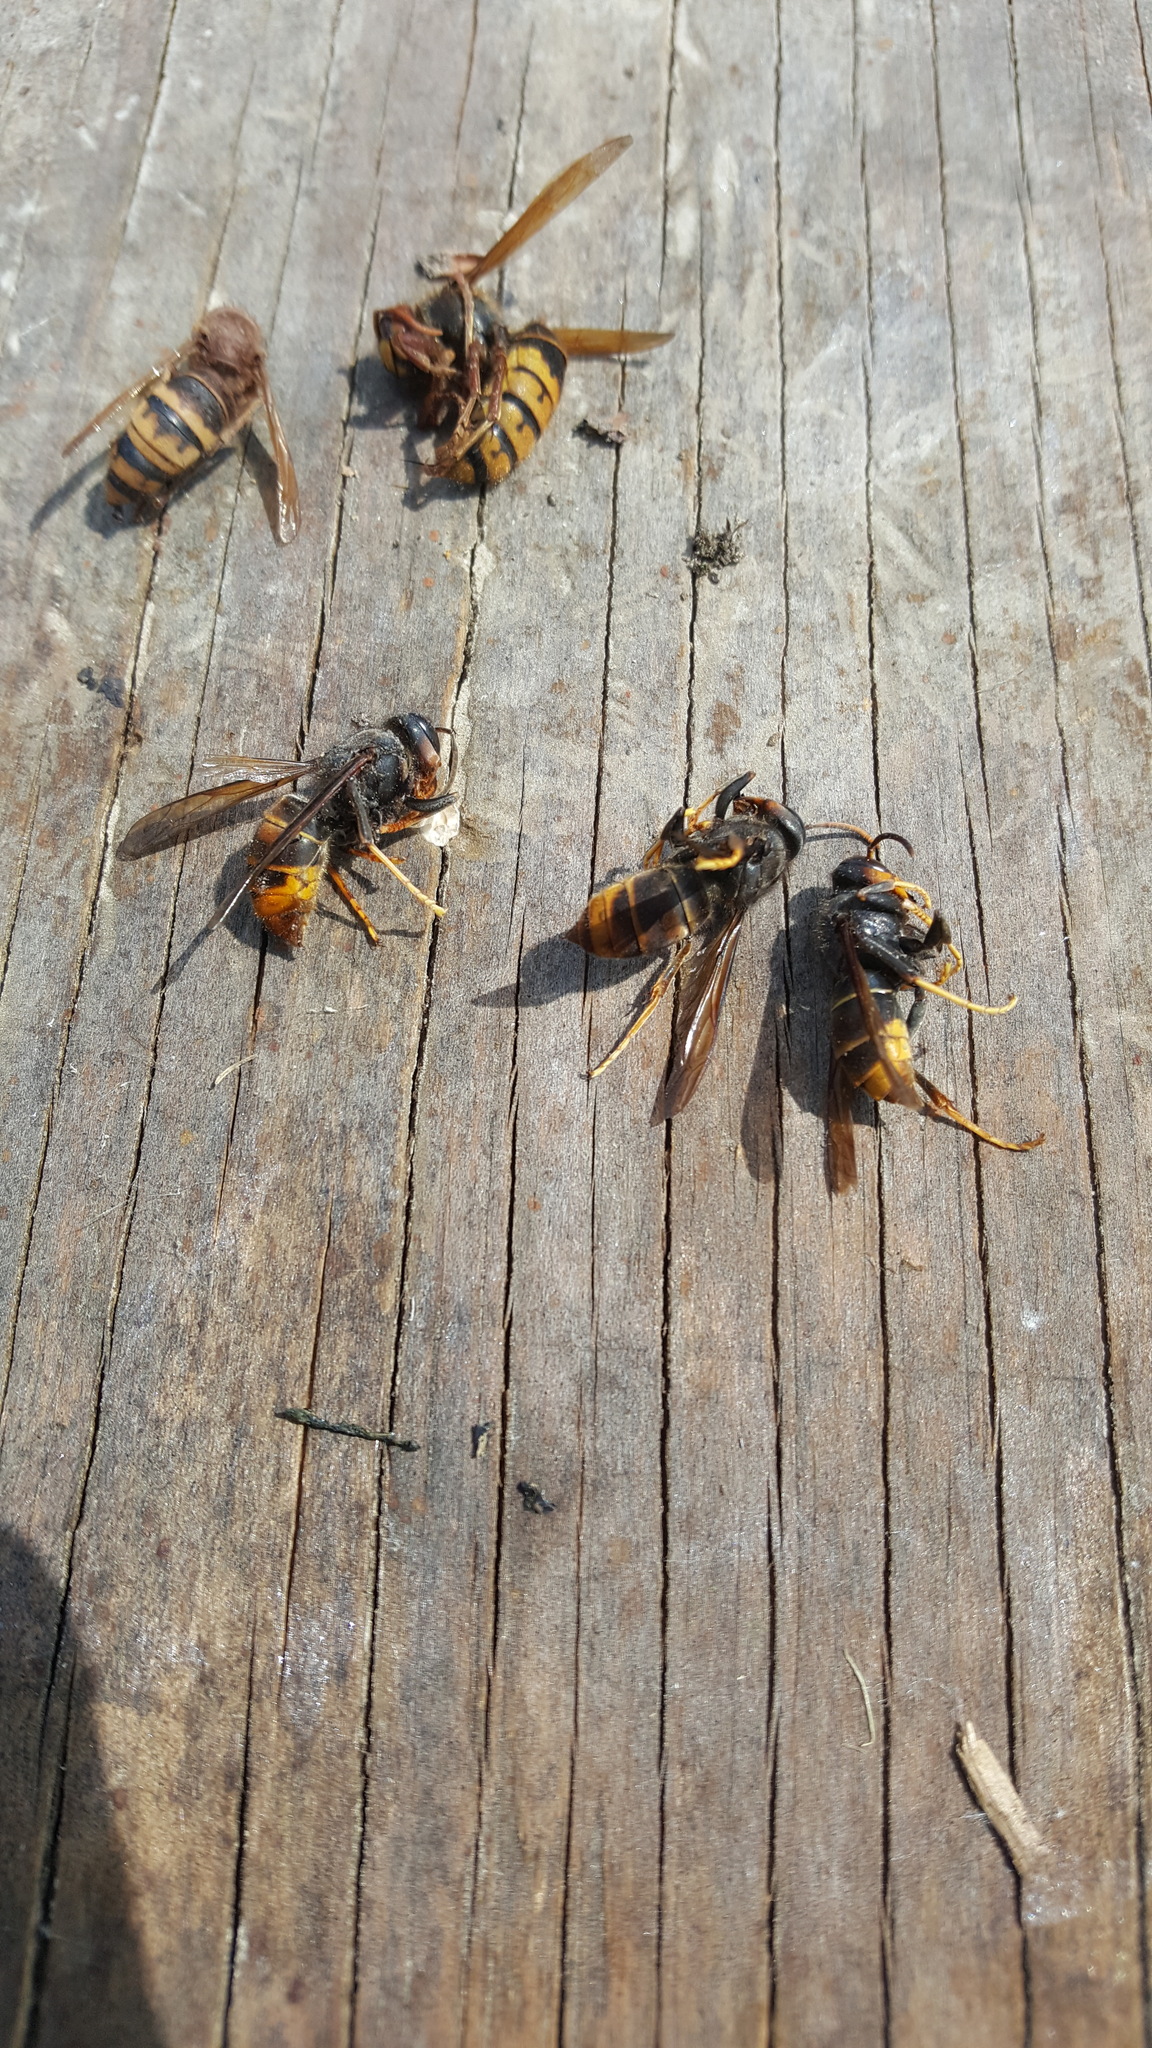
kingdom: Animalia
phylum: Arthropoda
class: Insecta
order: Hymenoptera
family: Vespidae
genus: Vespa
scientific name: Vespa velutina
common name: Asian hornet
